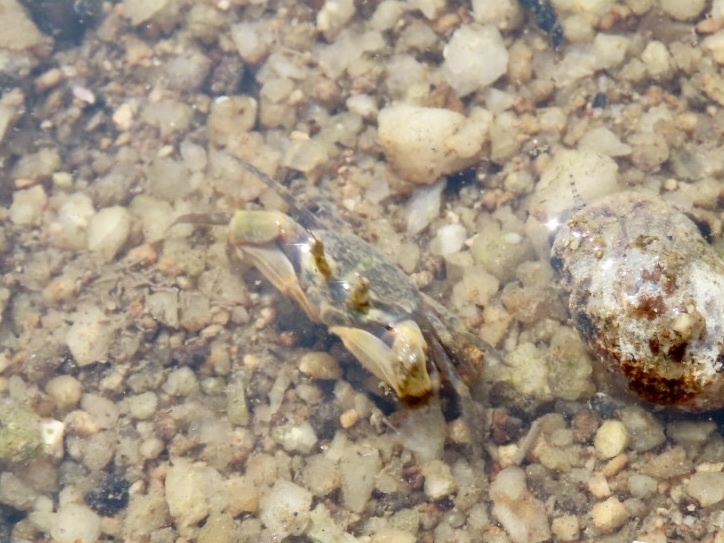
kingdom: Animalia
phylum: Arthropoda
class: Malacostraca
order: Decapoda
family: Dotillidae
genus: Tmethypocoelis
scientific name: Tmethypocoelis ceratophora
